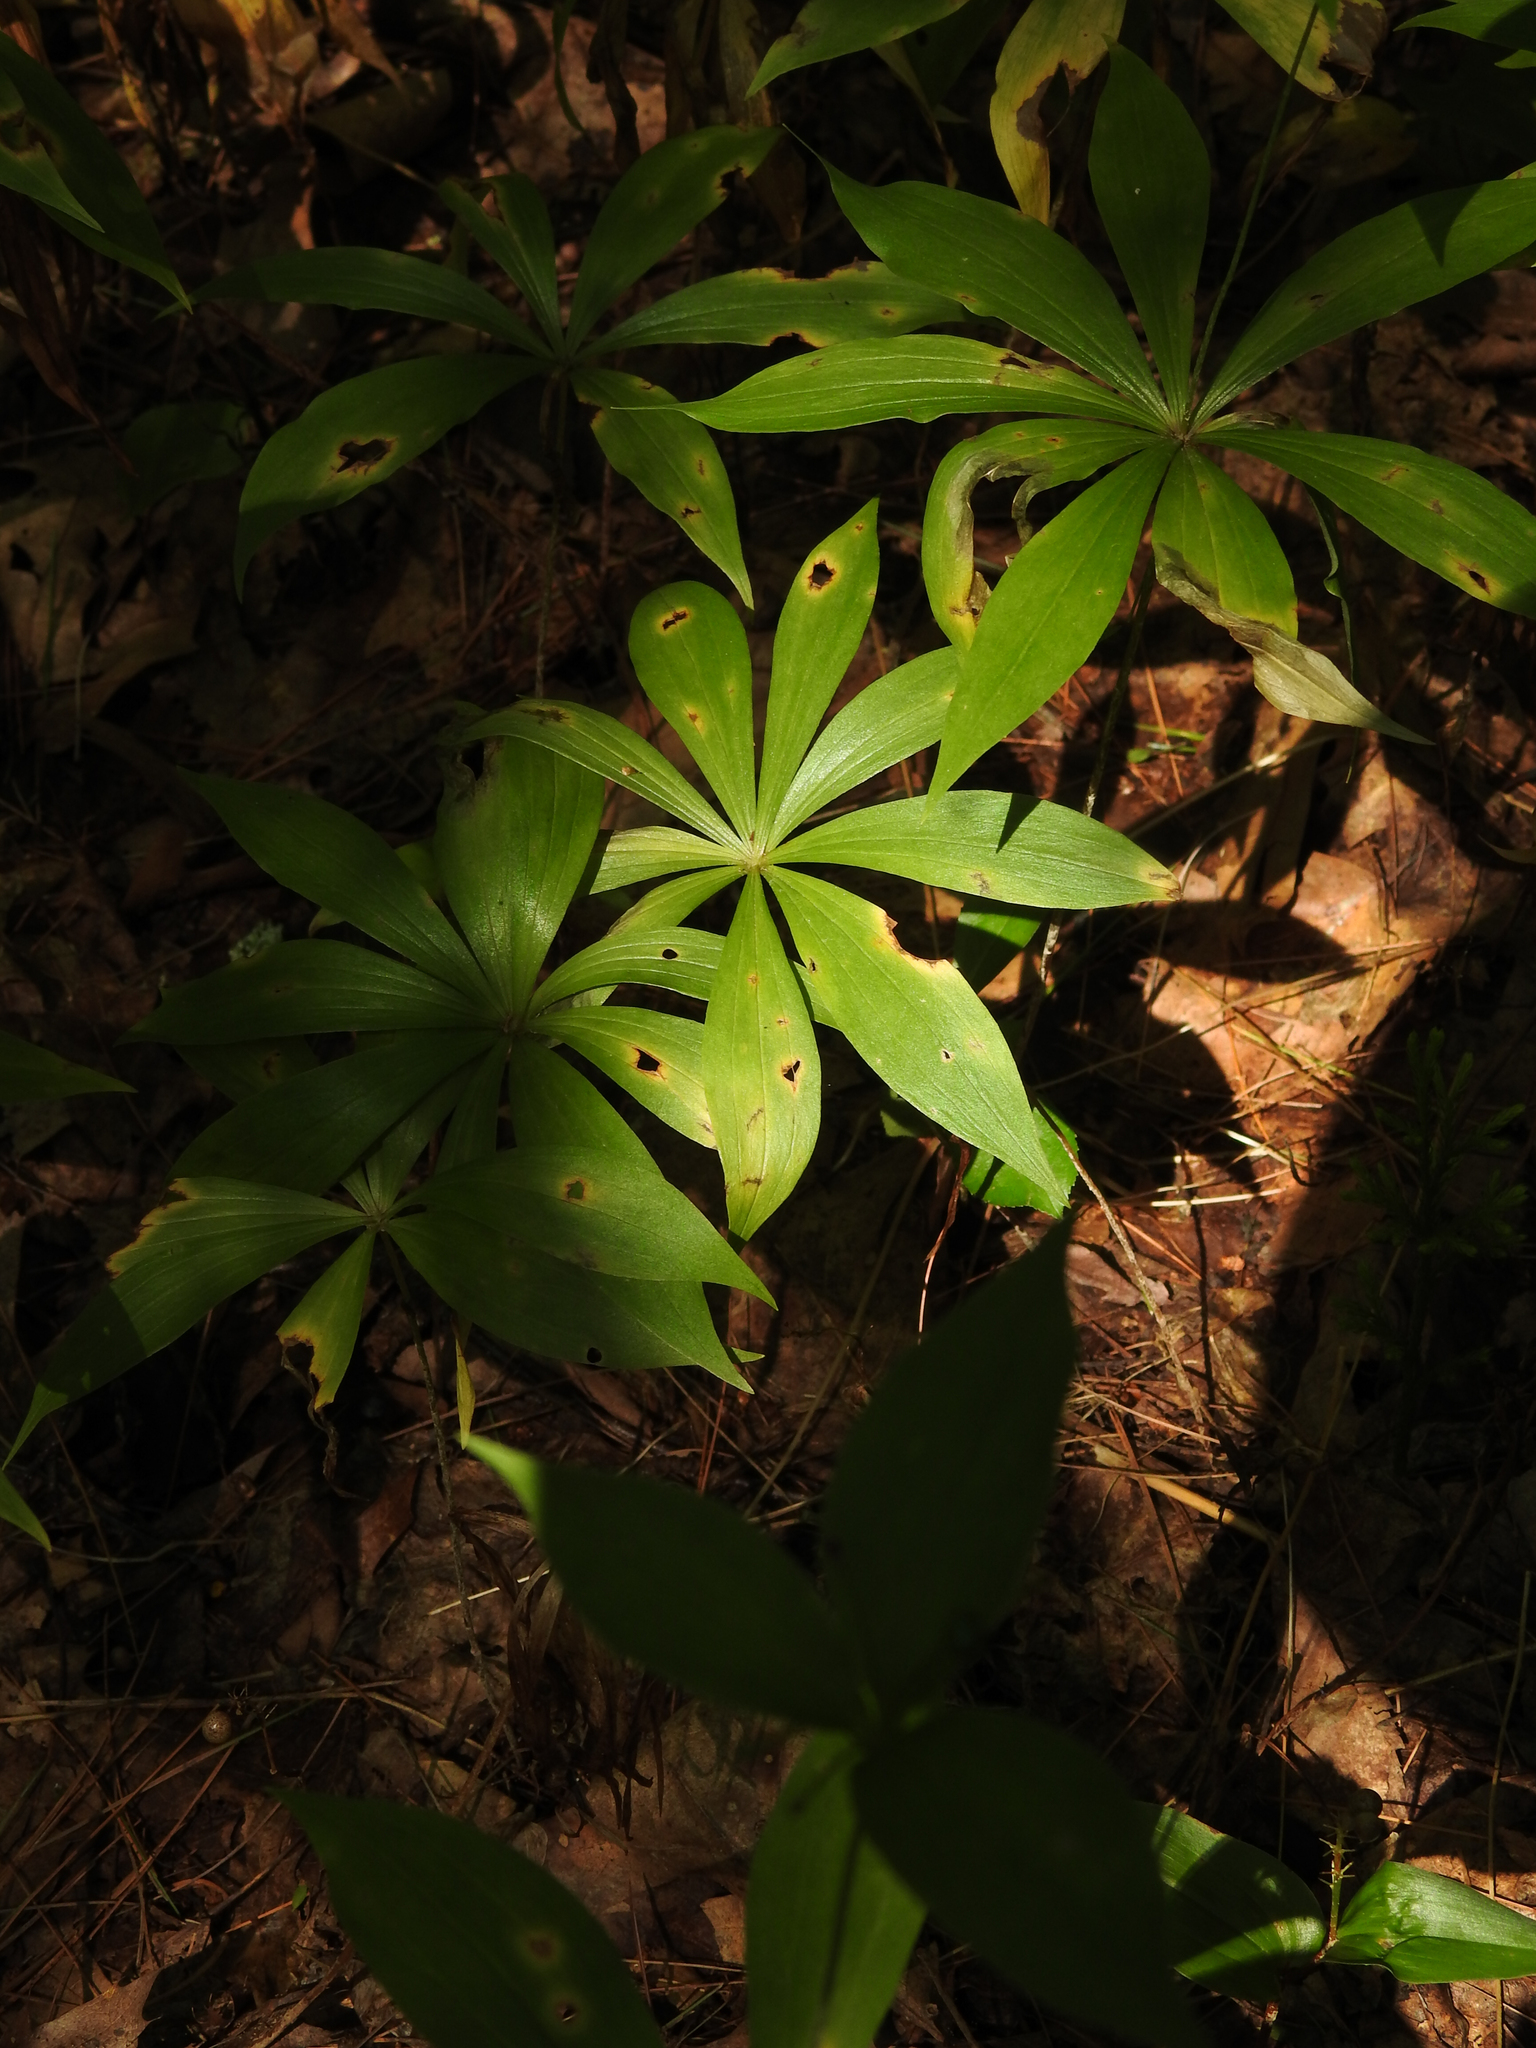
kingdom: Plantae
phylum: Tracheophyta
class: Liliopsida
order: Liliales
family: Liliaceae
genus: Medeola
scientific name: Medeola virginiana
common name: Indian cucumber-root
